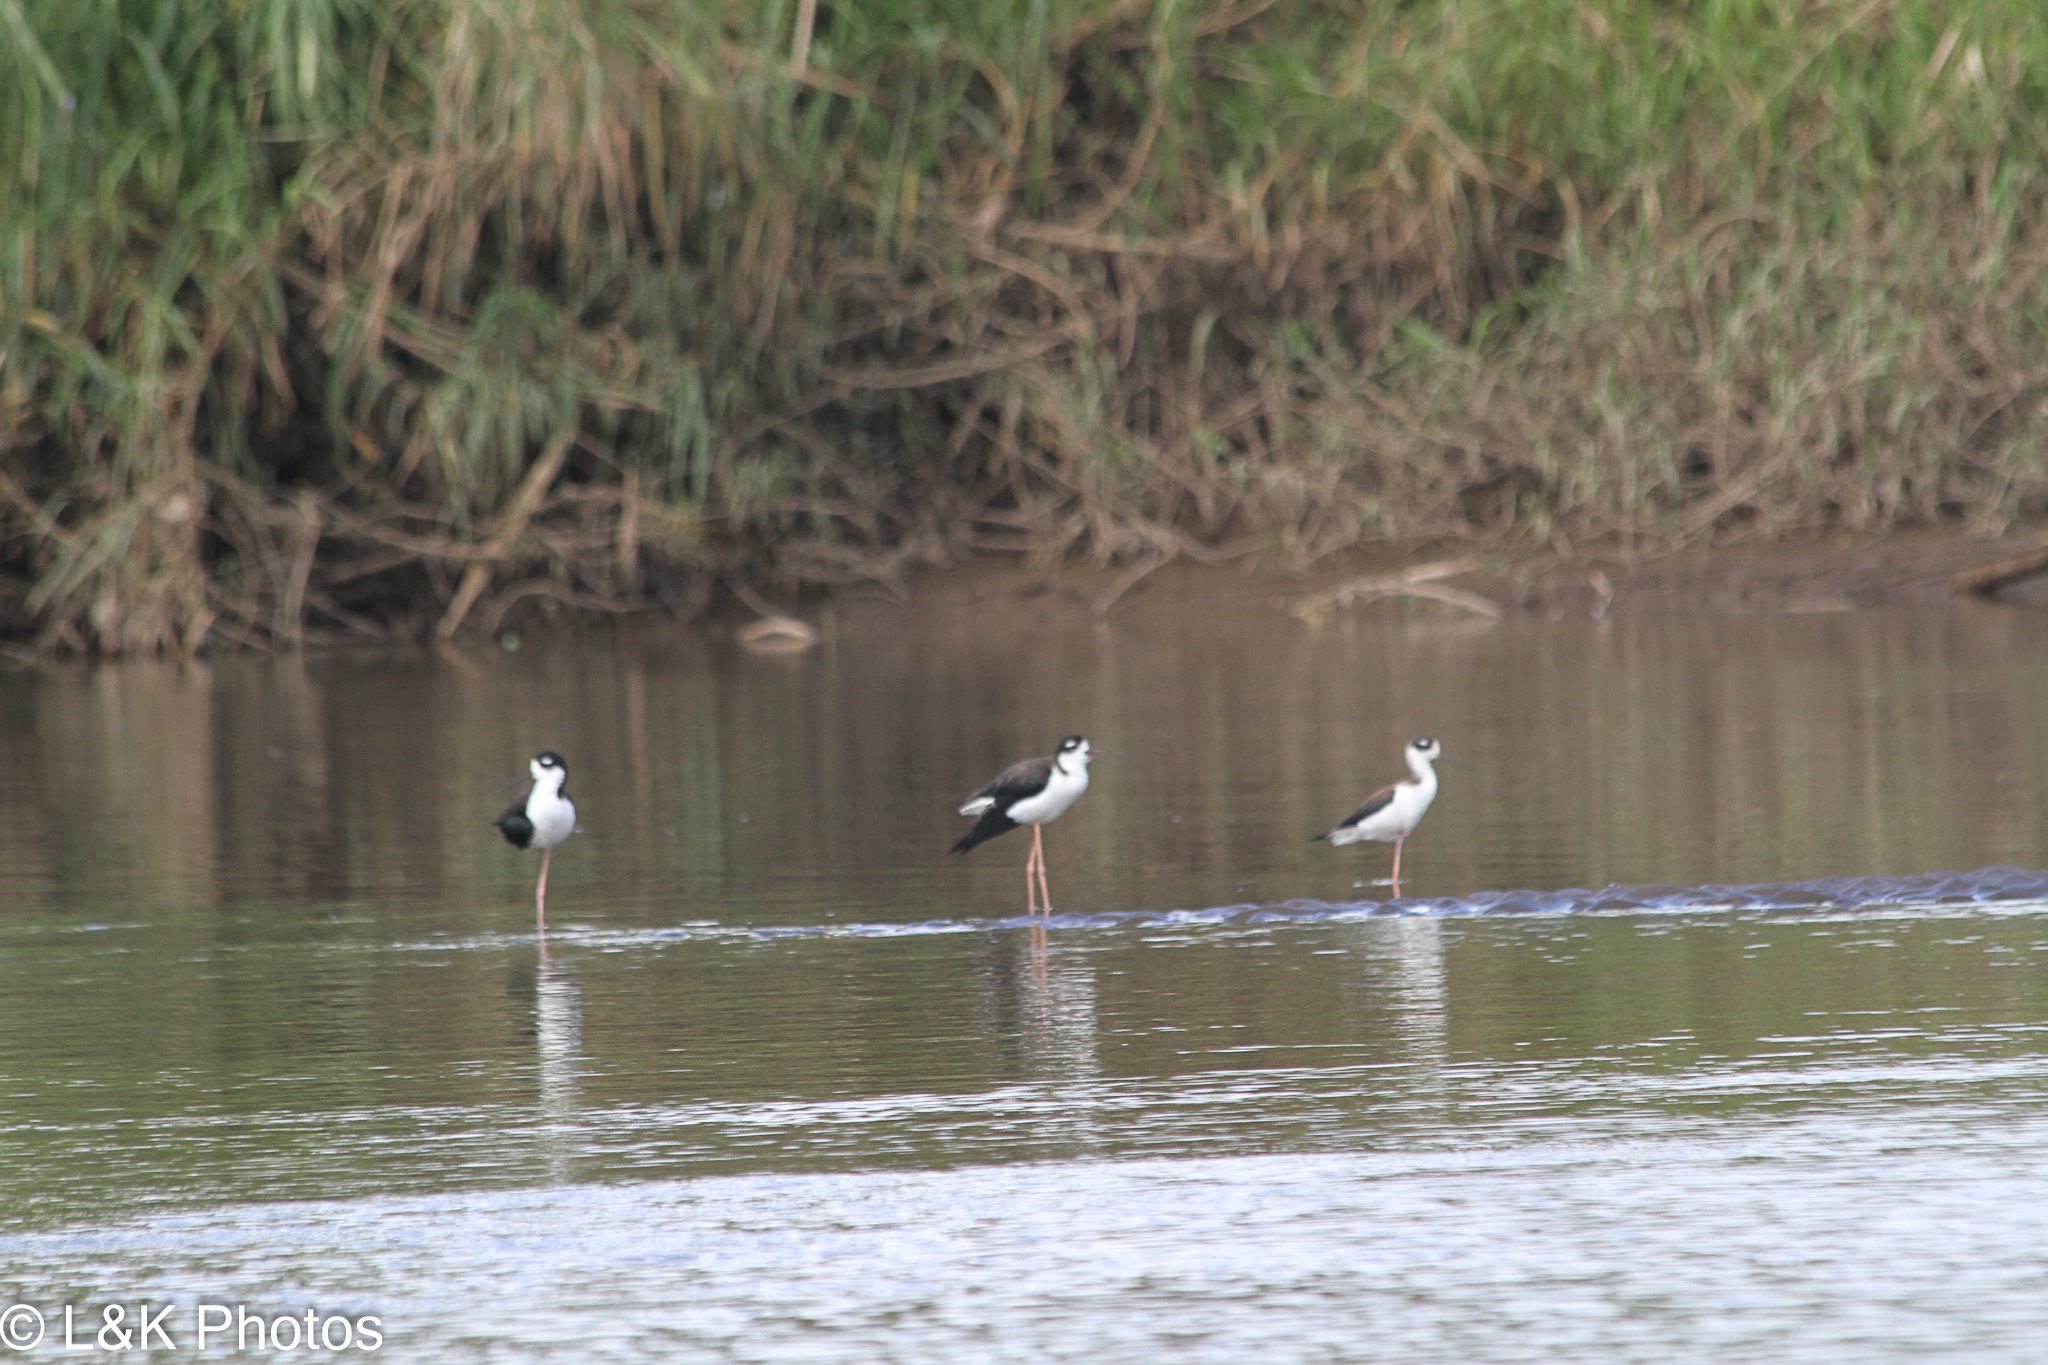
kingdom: Animalia
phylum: Chordata
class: Aves
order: Charadriiformes
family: Recurvirostridae
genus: Himantopus
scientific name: Himantopus mexicanus
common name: Black-necked stilt
